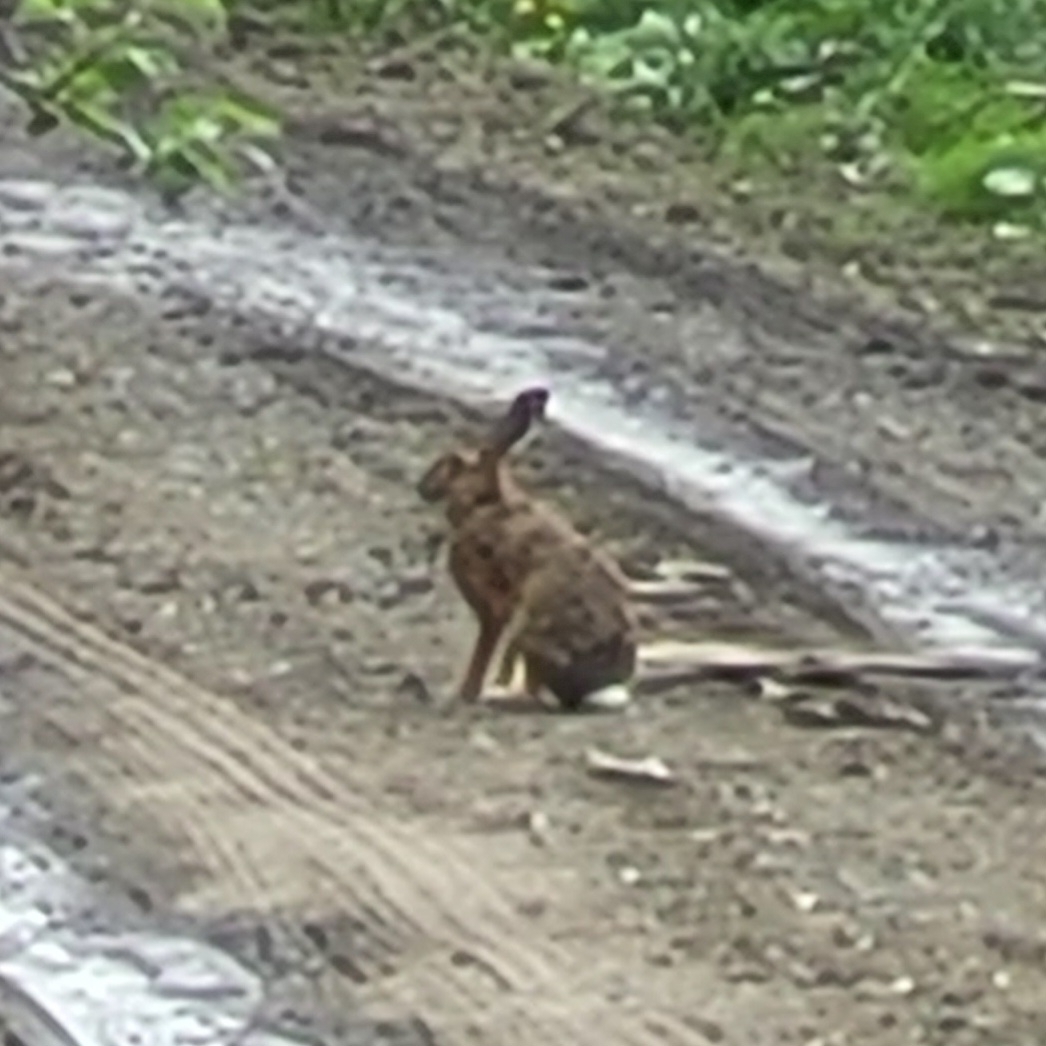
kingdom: Animalia
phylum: Chordata
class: Mammalia
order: Lagomorpha
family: Leporidae
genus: Lepus
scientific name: Lepus europaeus
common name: European hare
